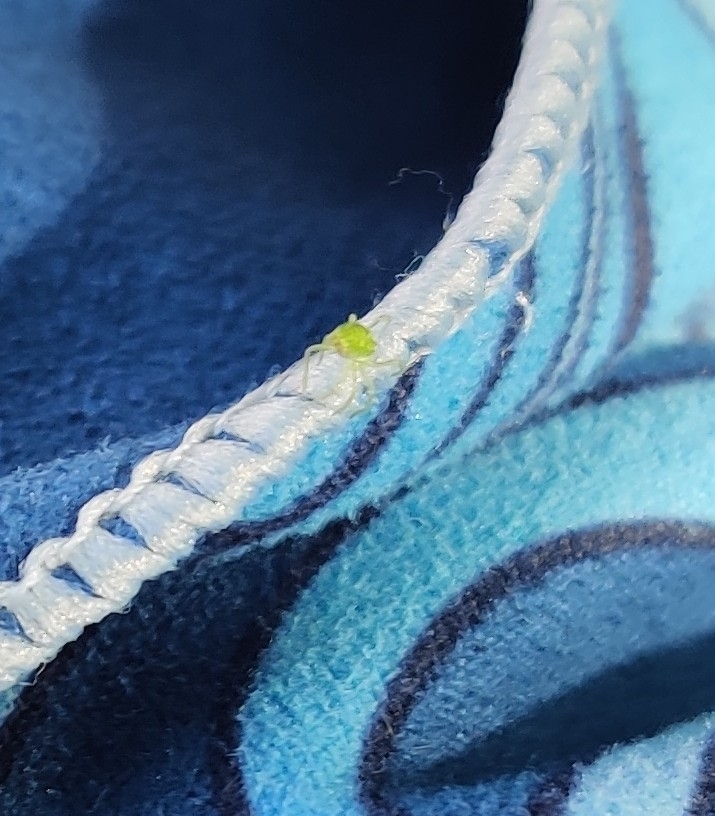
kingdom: Animalia
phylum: Arthropoda
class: Arachnida
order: Araneae
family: Dictynidae
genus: Nigma
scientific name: Nigma walckenaeri
